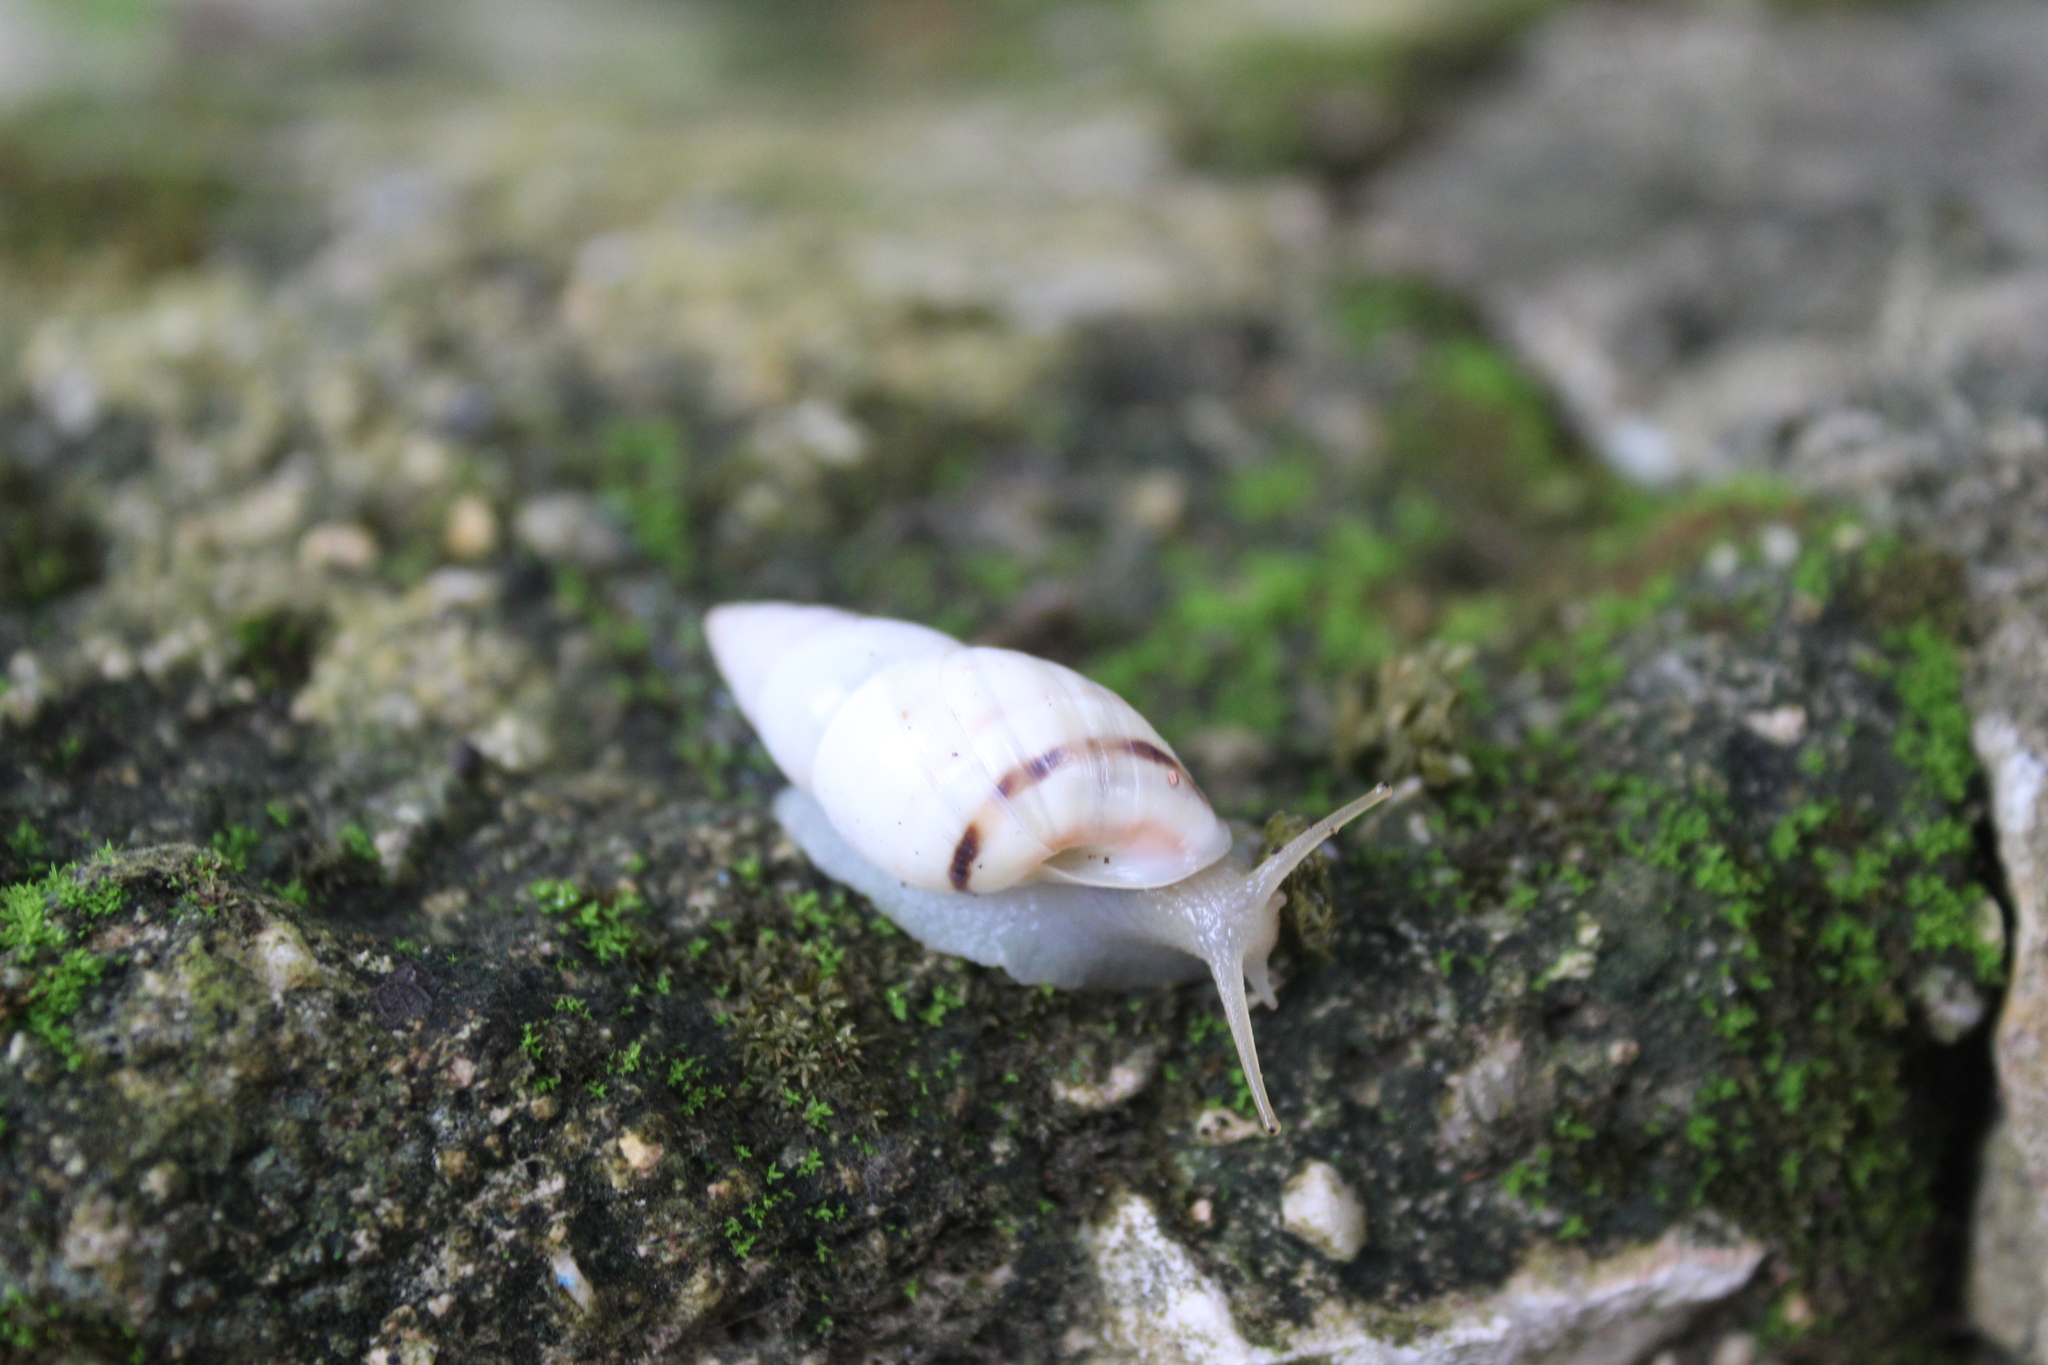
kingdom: Animalia
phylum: Mollusca
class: Gastropoda
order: Stylommatophora
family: Bulimulidae
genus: Drymaeus
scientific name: Drymaeus
